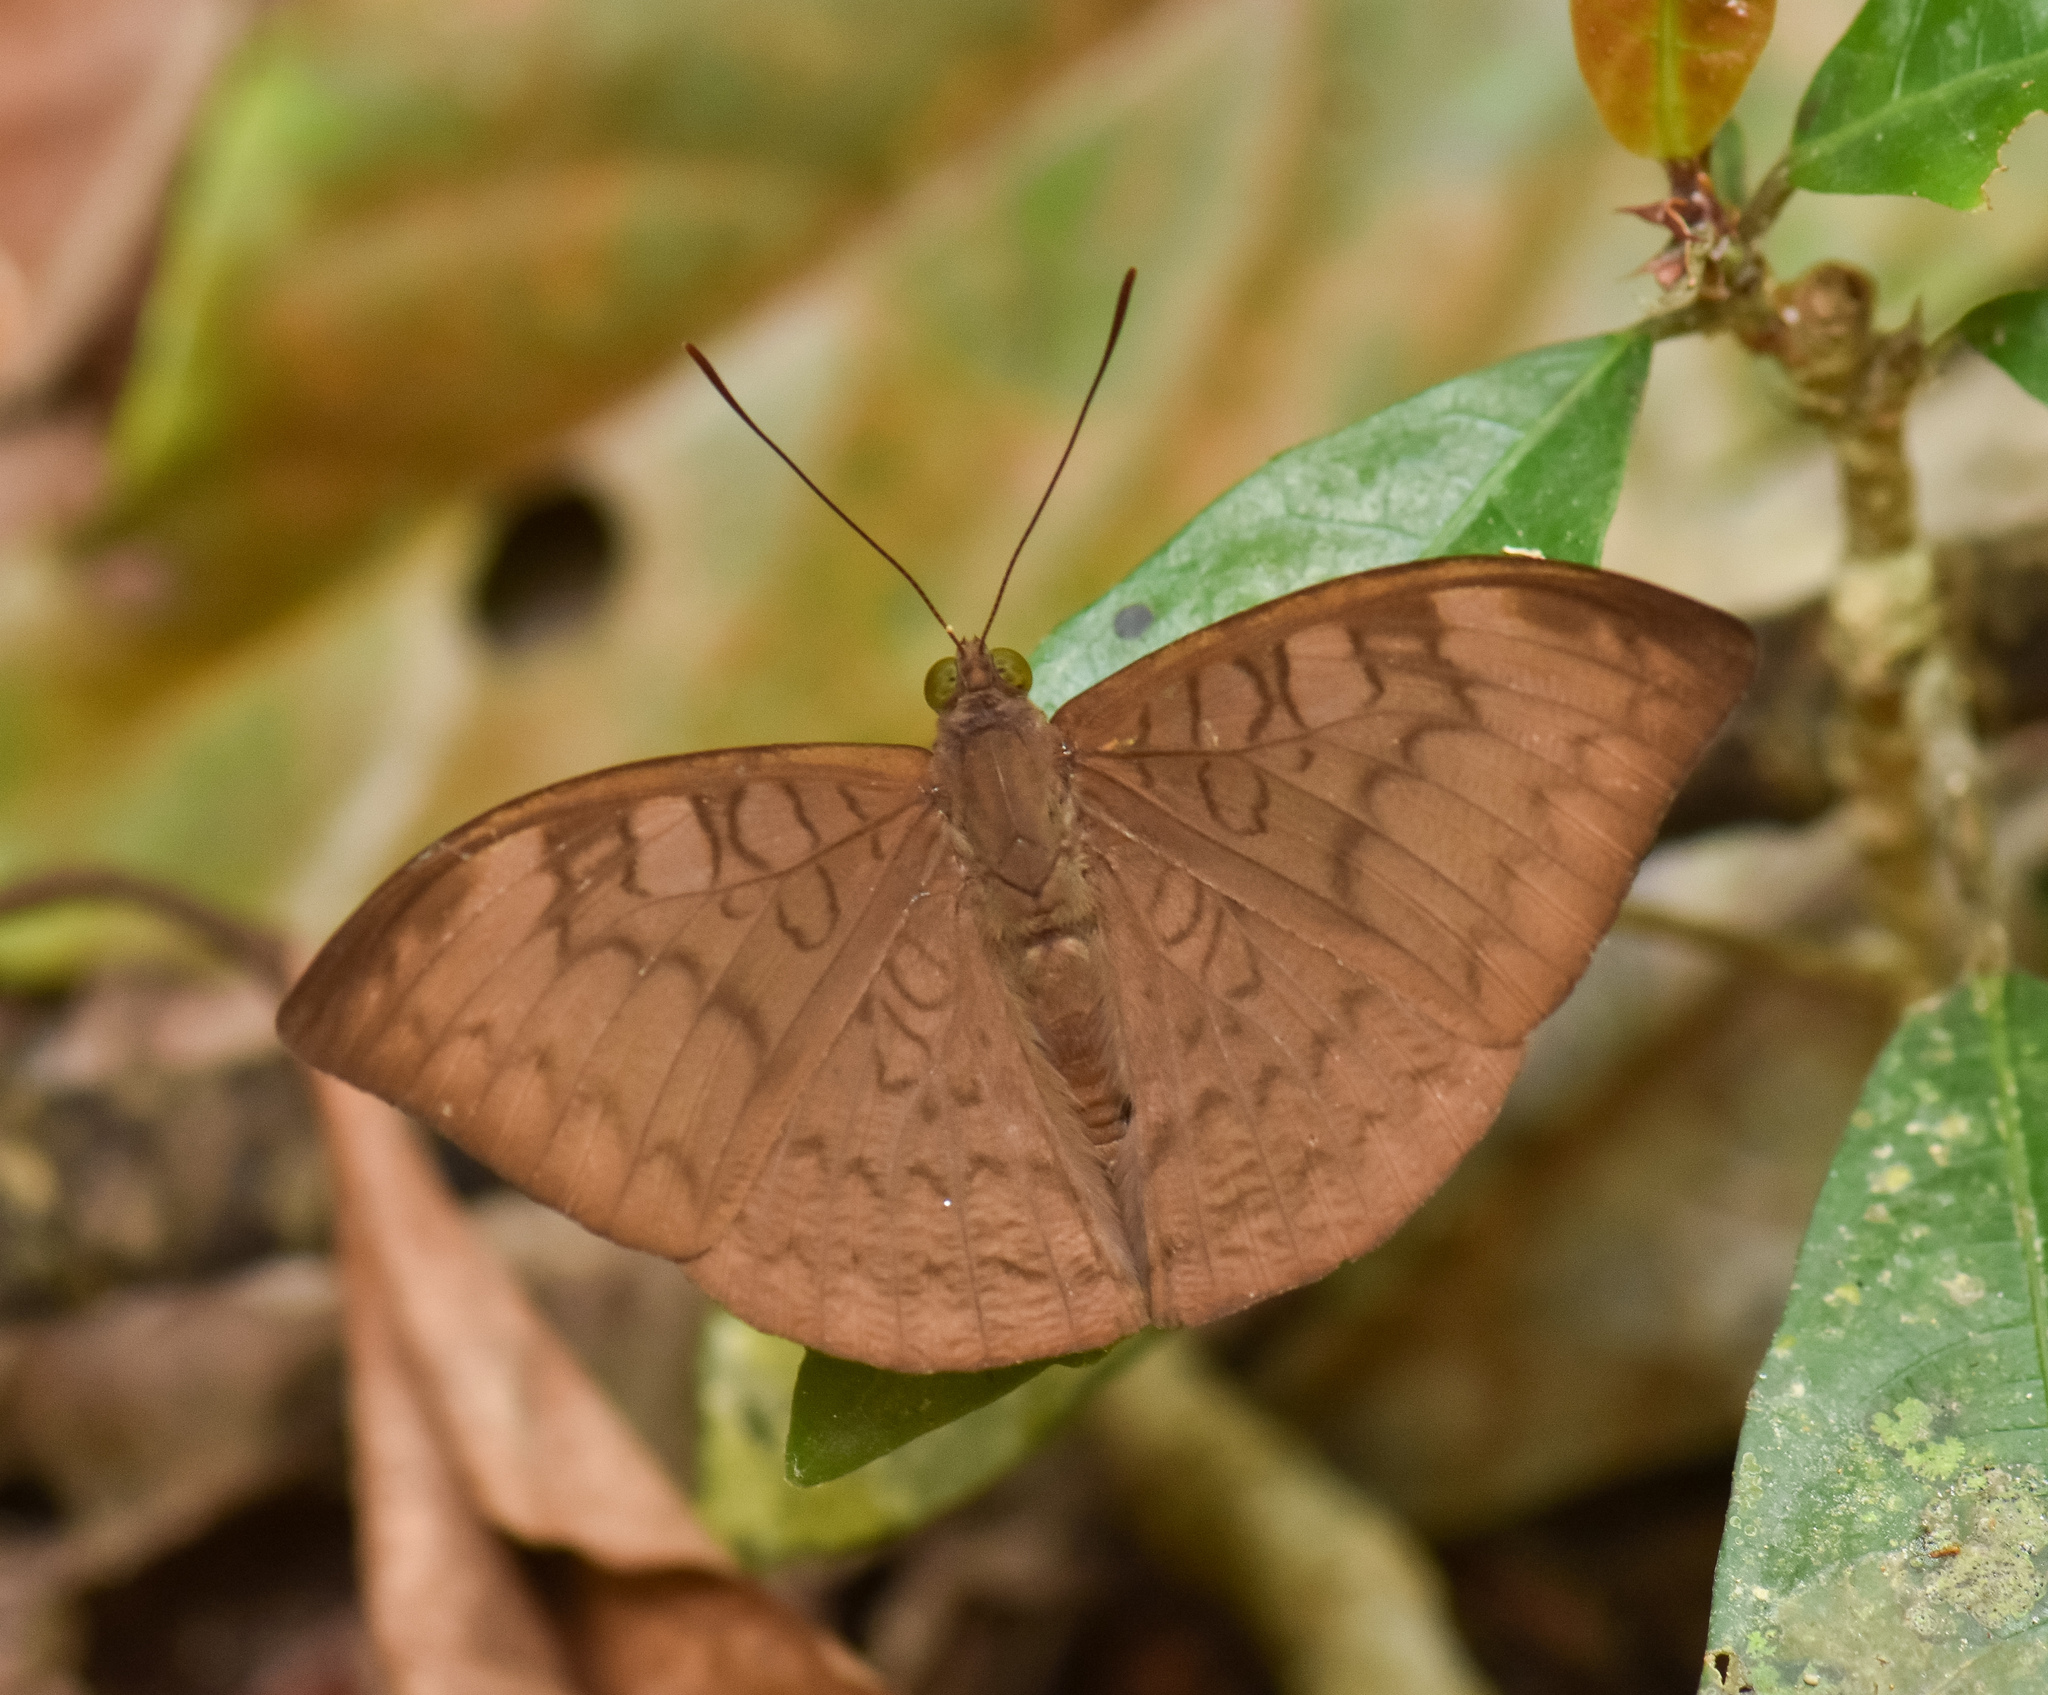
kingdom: Animalia
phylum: Arthropoda
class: Insecta
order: Lepidoptera
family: Nymphalidae
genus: Tanaecia
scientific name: Tanaecia julii
